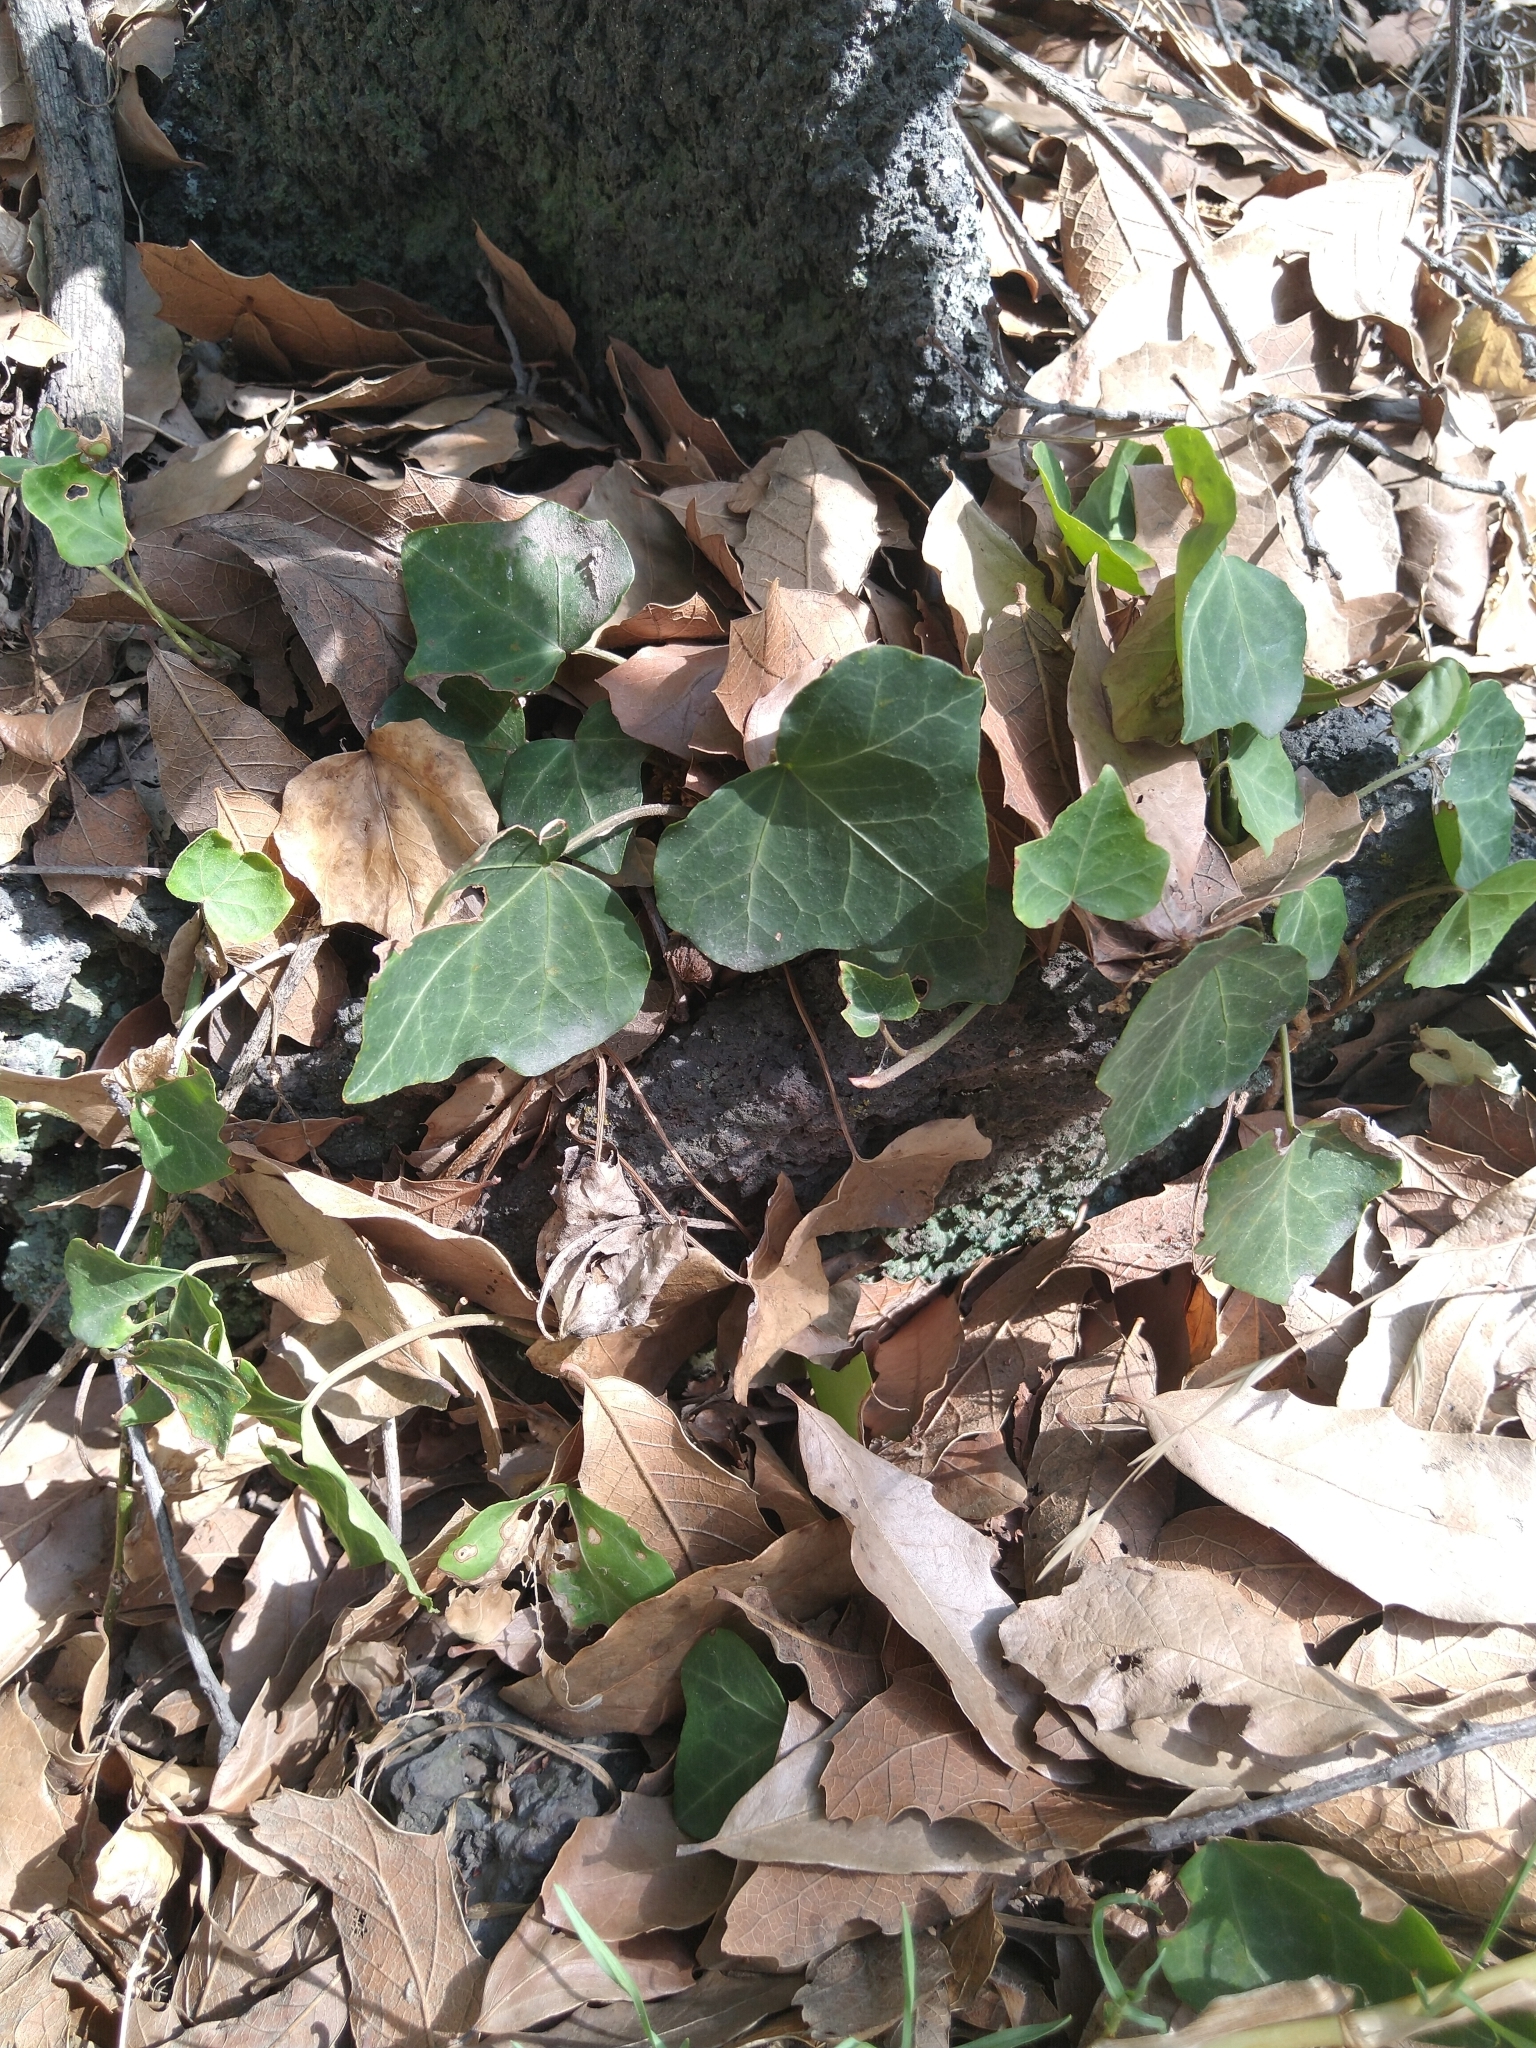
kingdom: Plantae
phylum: Tracheophyta
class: Magnoliopsida
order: Apiales
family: Araliaceae
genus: Hedera
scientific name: Hedera helix
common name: Ivy
